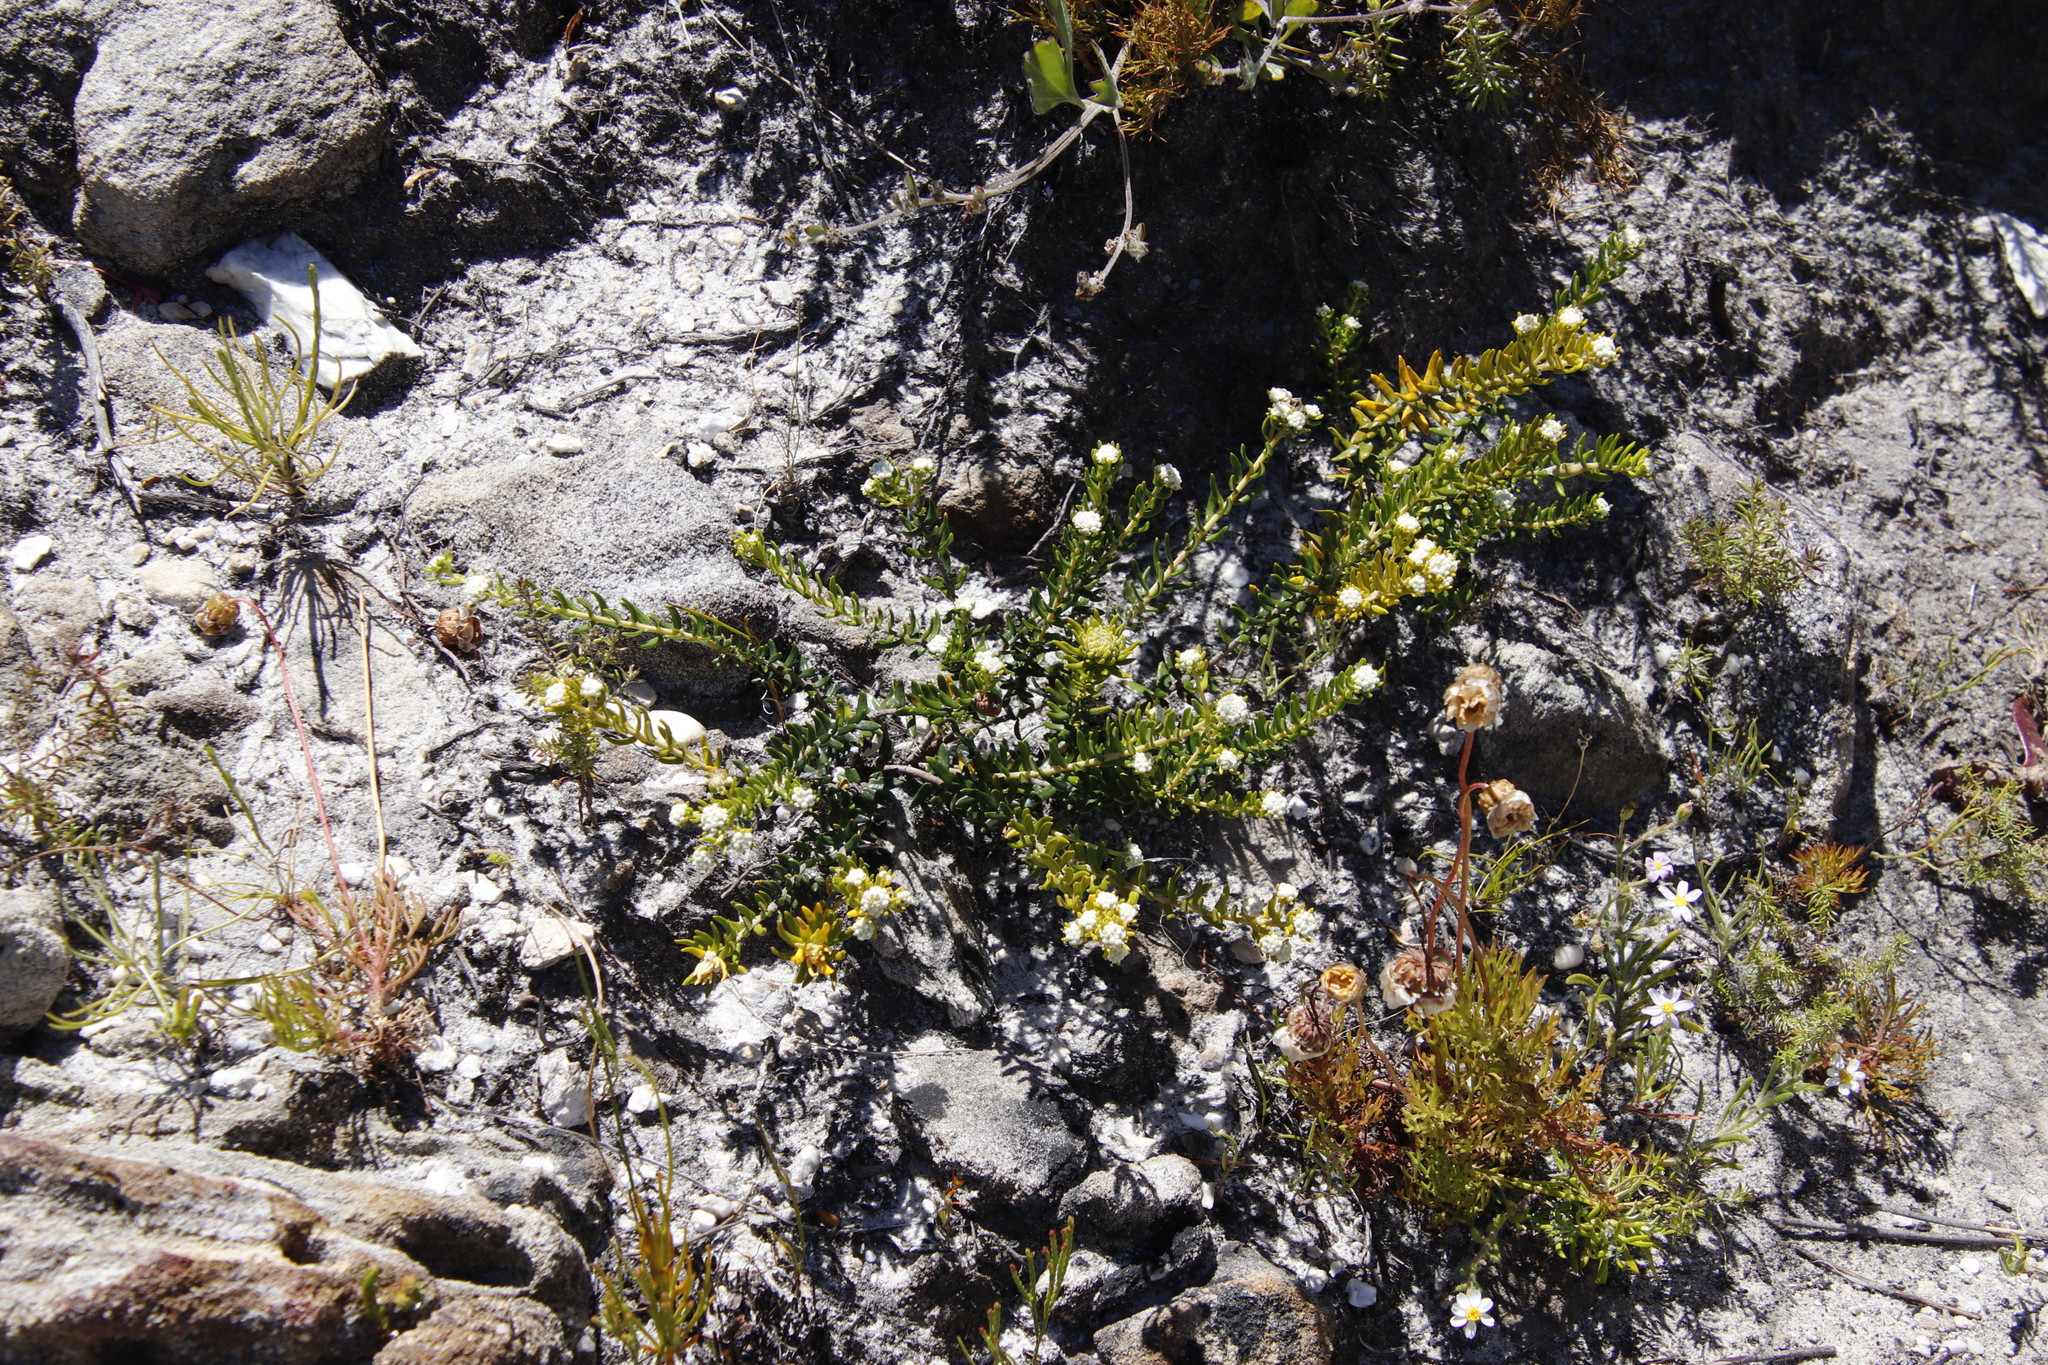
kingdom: Plantae
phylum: Tracheophyta
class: Magnoliopsida
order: Rosales
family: Rhamnaceae
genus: Phylica
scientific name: Phylica lasiocarpa
